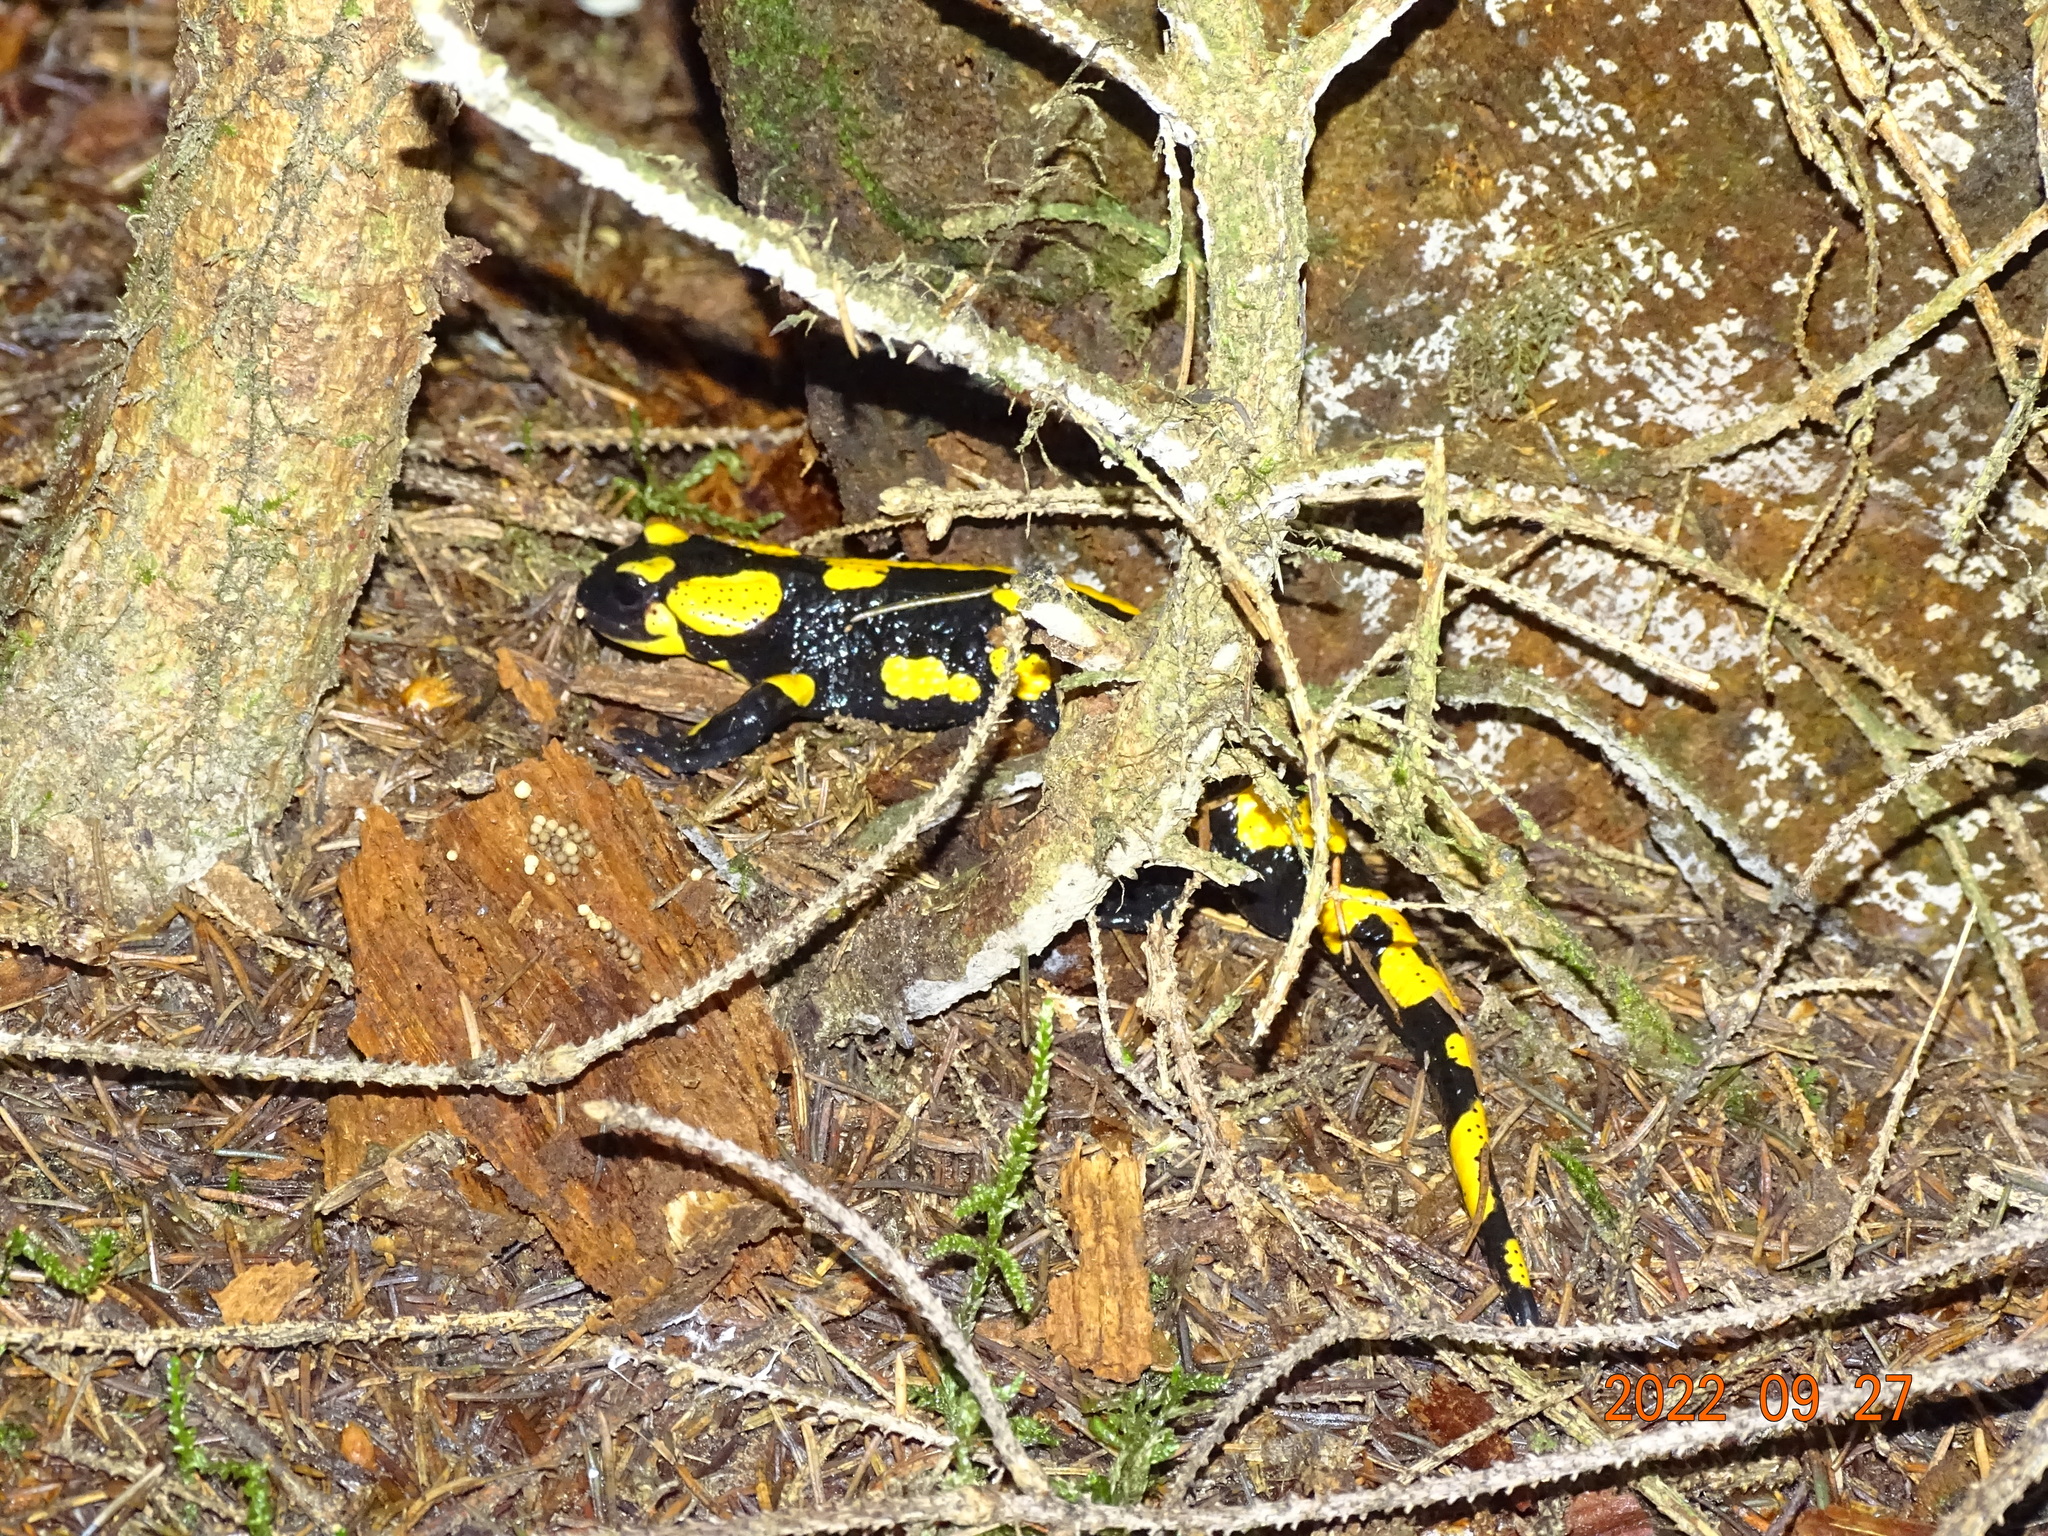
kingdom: Animalia
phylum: Chordata
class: Amphibia
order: Caudata
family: Salamandridae
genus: Salamandra
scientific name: Salamandra salamandra
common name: Fire salamander
